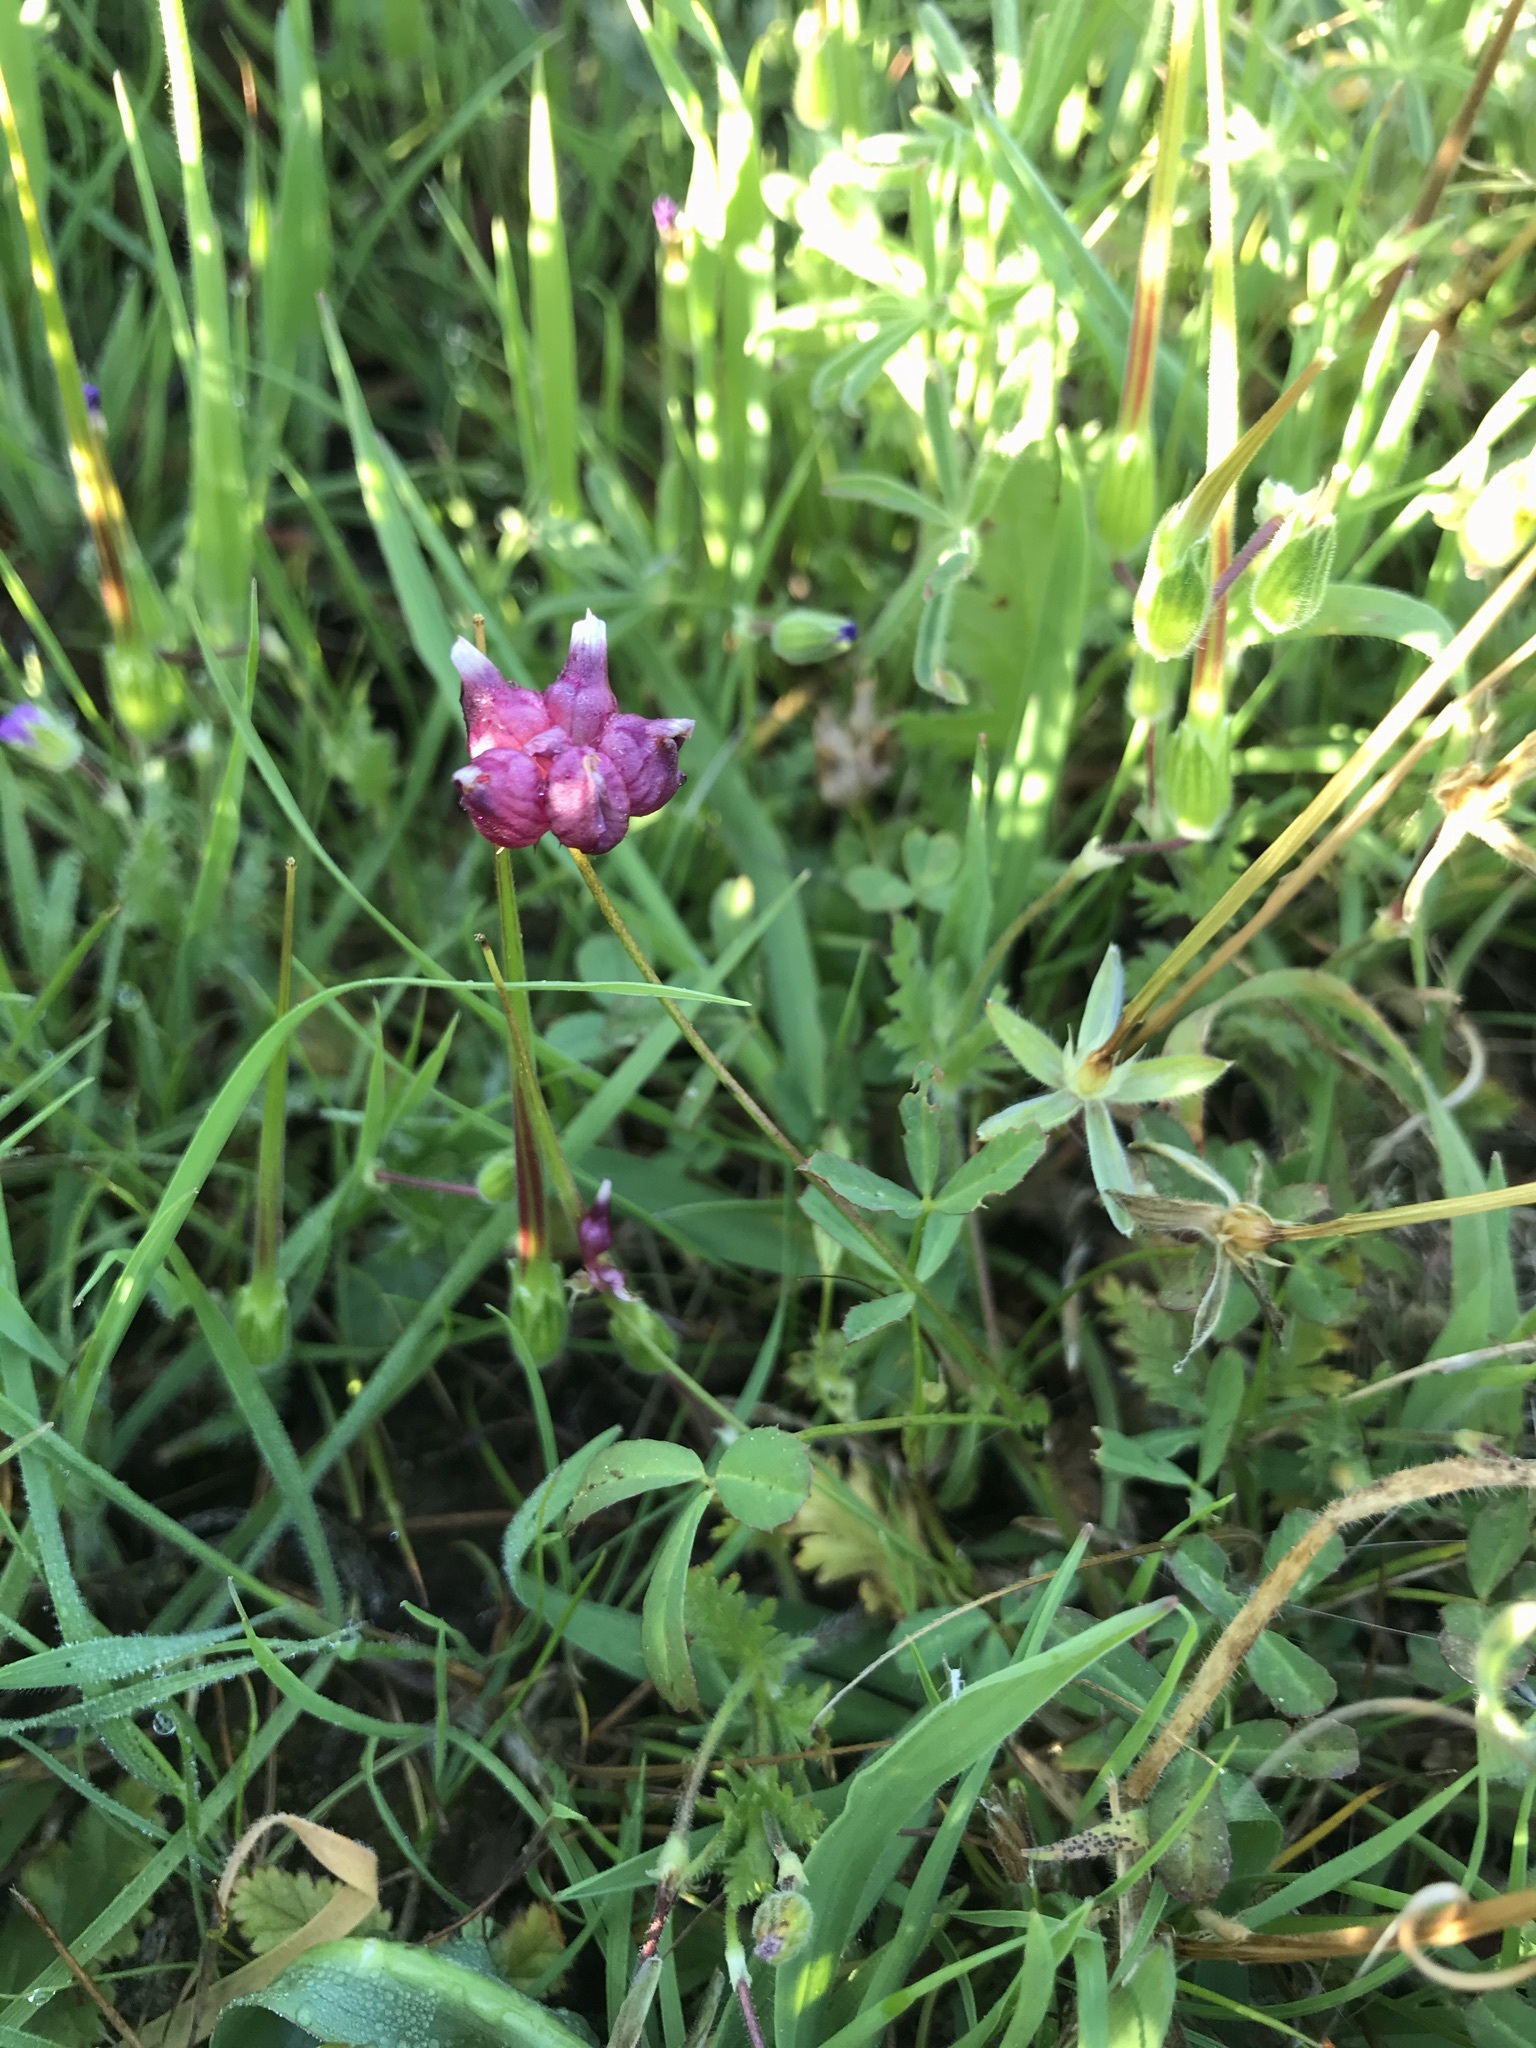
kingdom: Plantae
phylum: Tracheophyta
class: Magnoliopsida
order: Fabales
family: Fabaceae
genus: Trifolium
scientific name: Trifolium depauperatum
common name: Poverty clover
